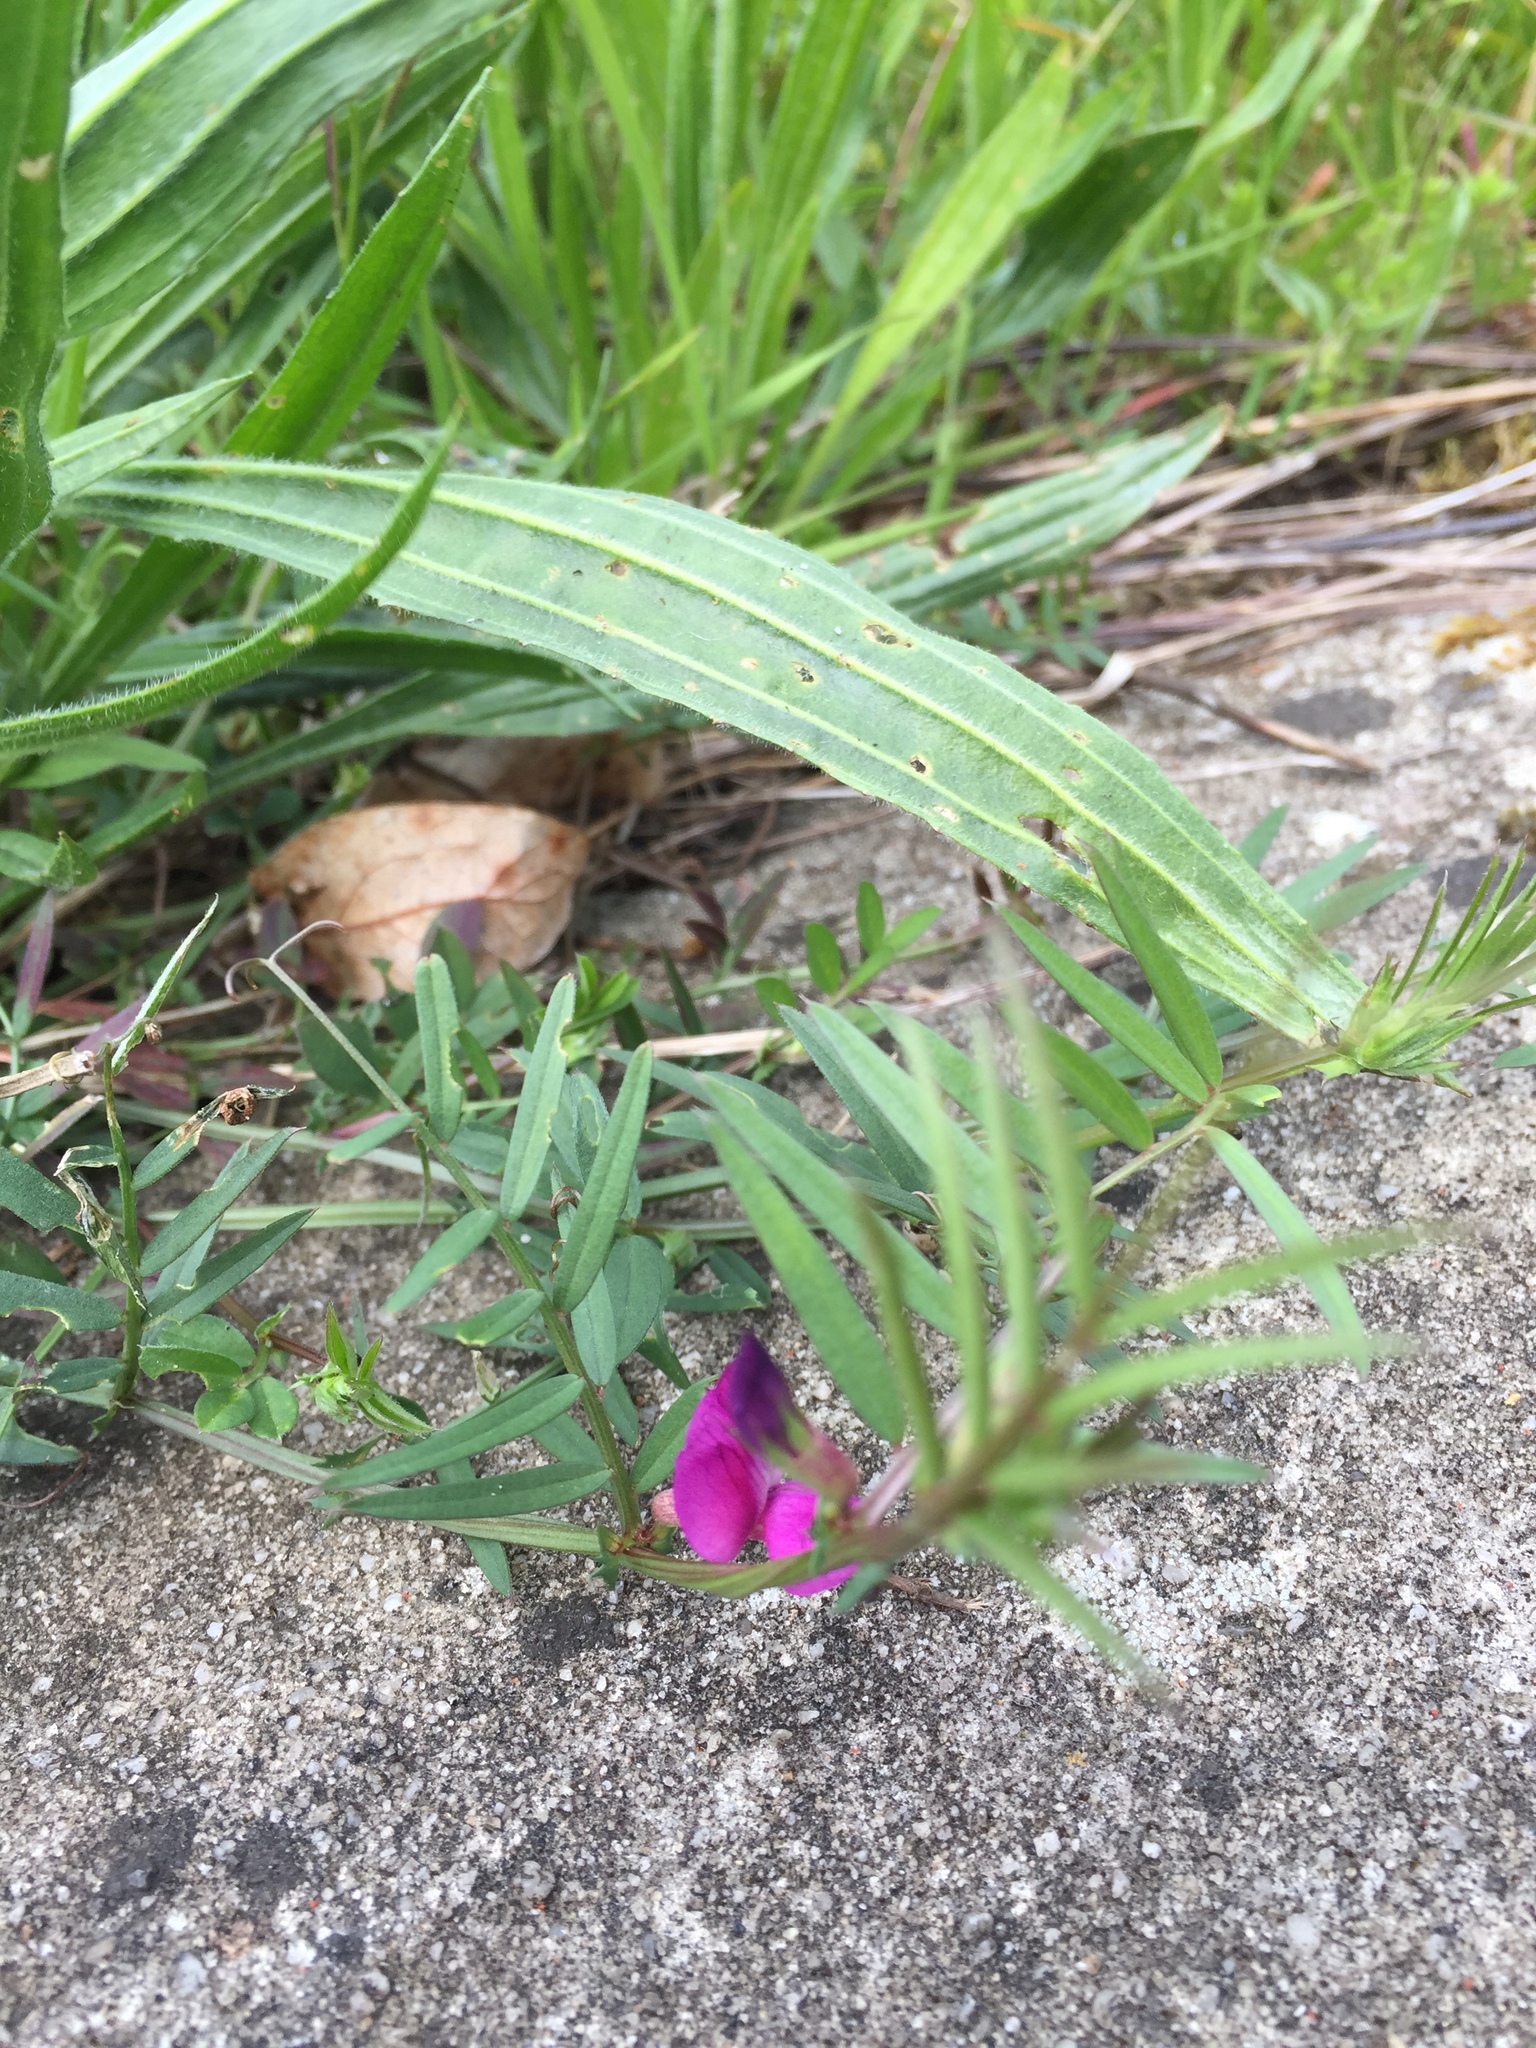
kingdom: Plantae
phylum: Tracheophyta
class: Magnoliopsida
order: Fabales
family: Fabaceae
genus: Vicia
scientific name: Vicia sativa
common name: Garden vetch
